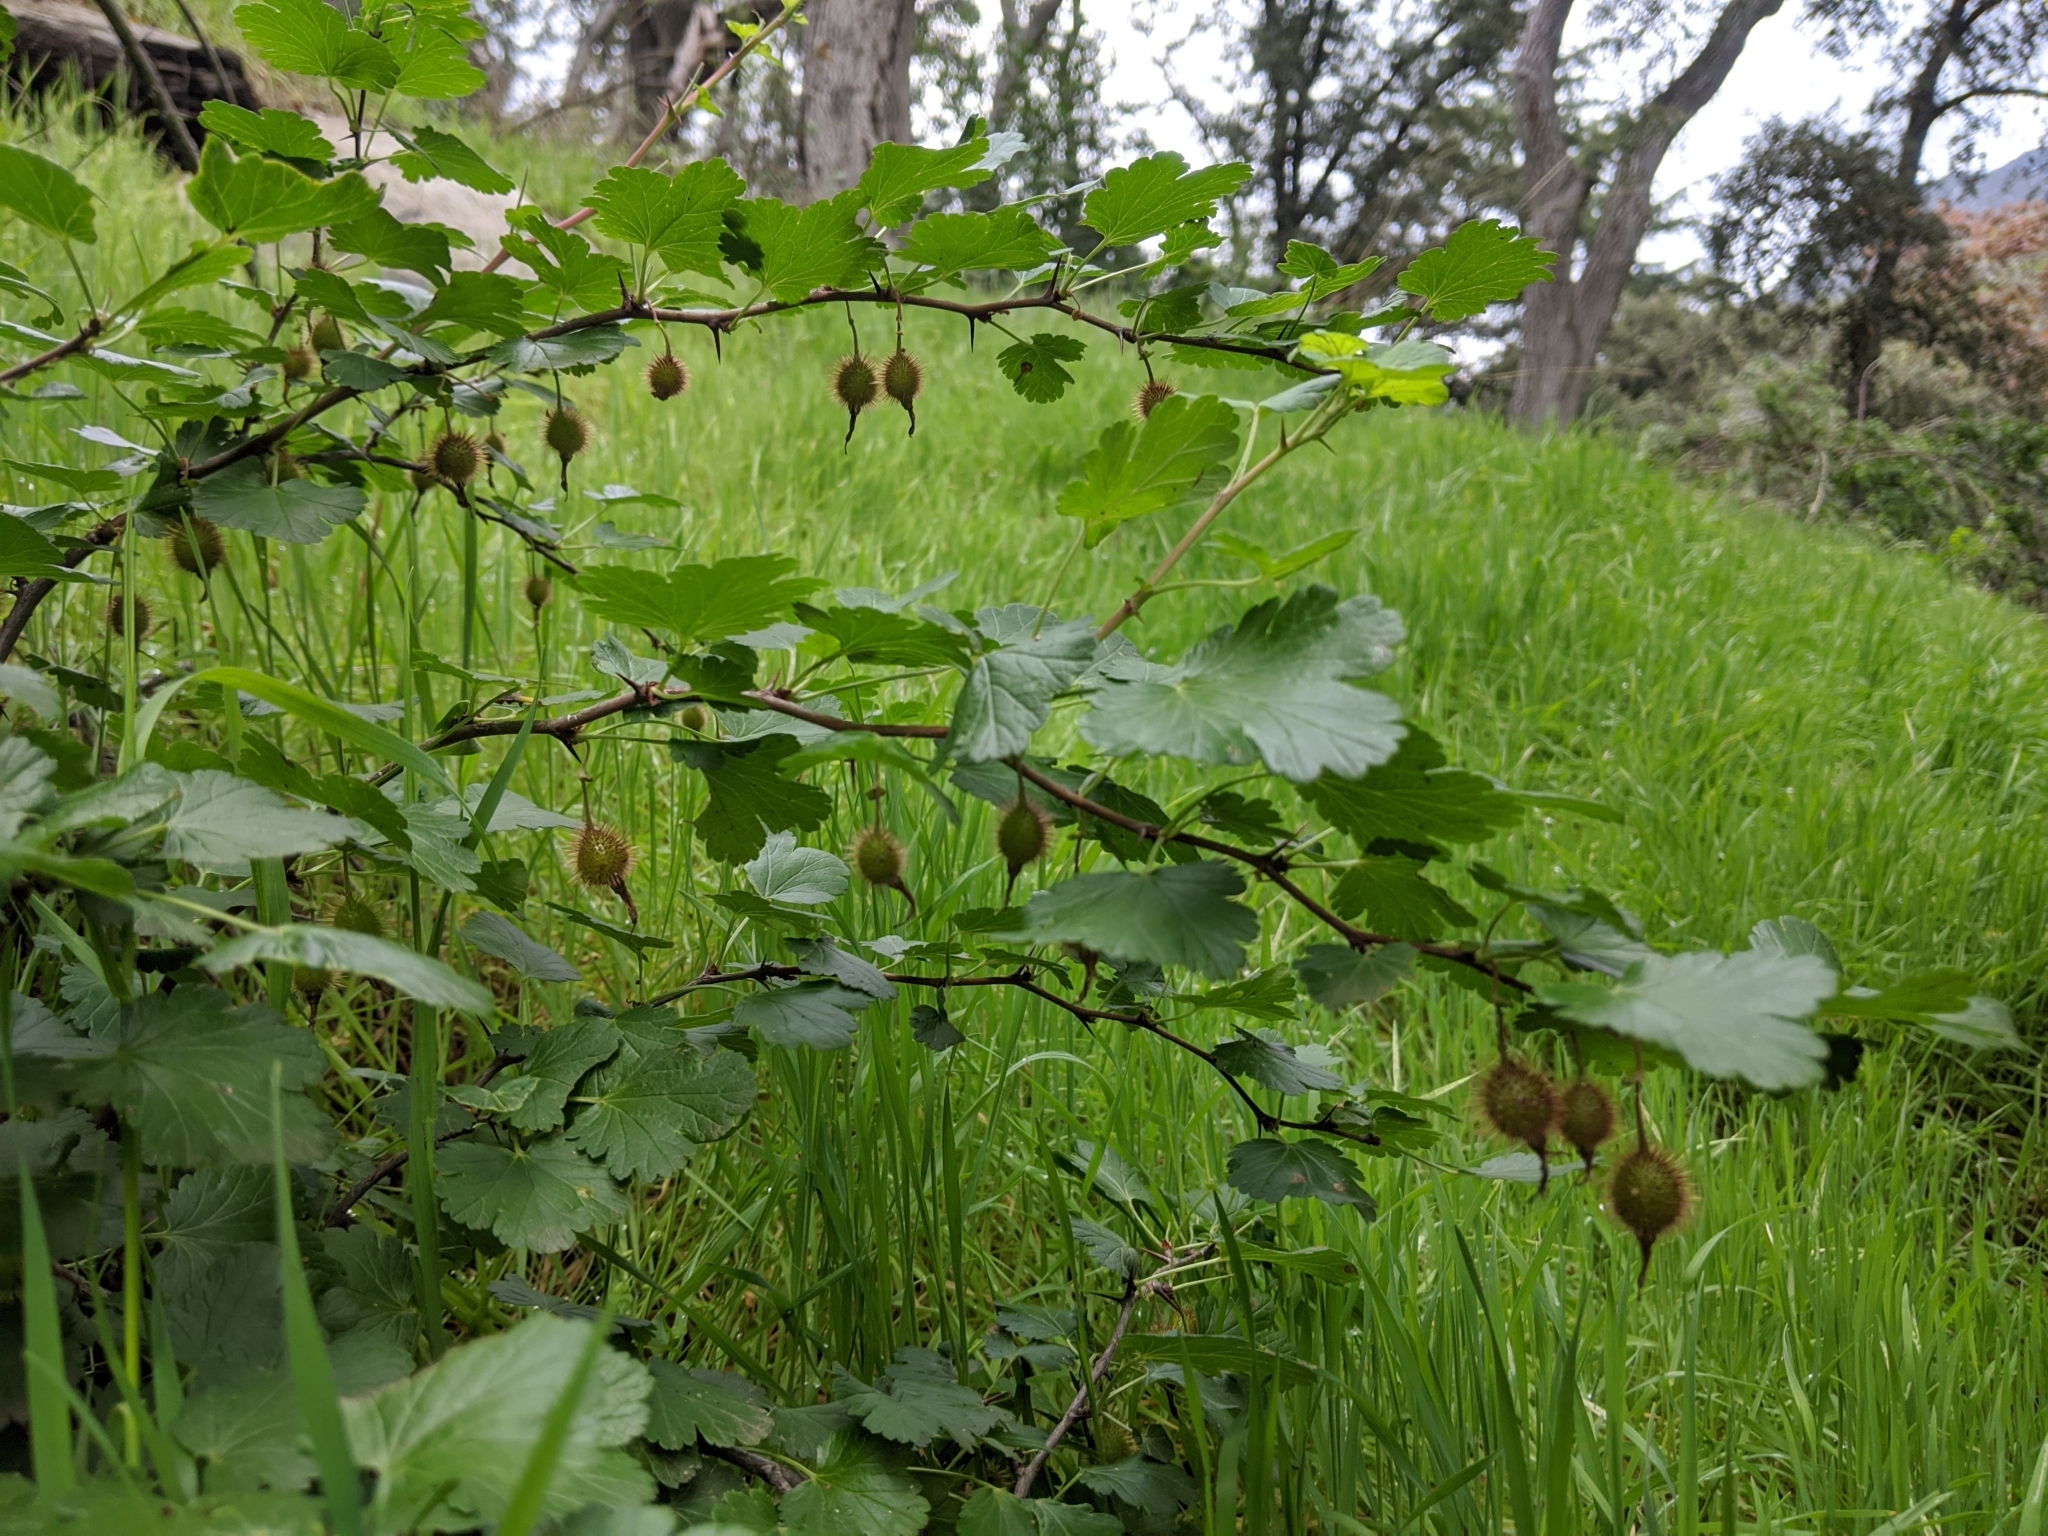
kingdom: Plantae
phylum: Tracheophyta
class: Magnoliopsida
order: Saxifragales
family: Grossulariaceae
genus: Ribes
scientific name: Ribes californicum
